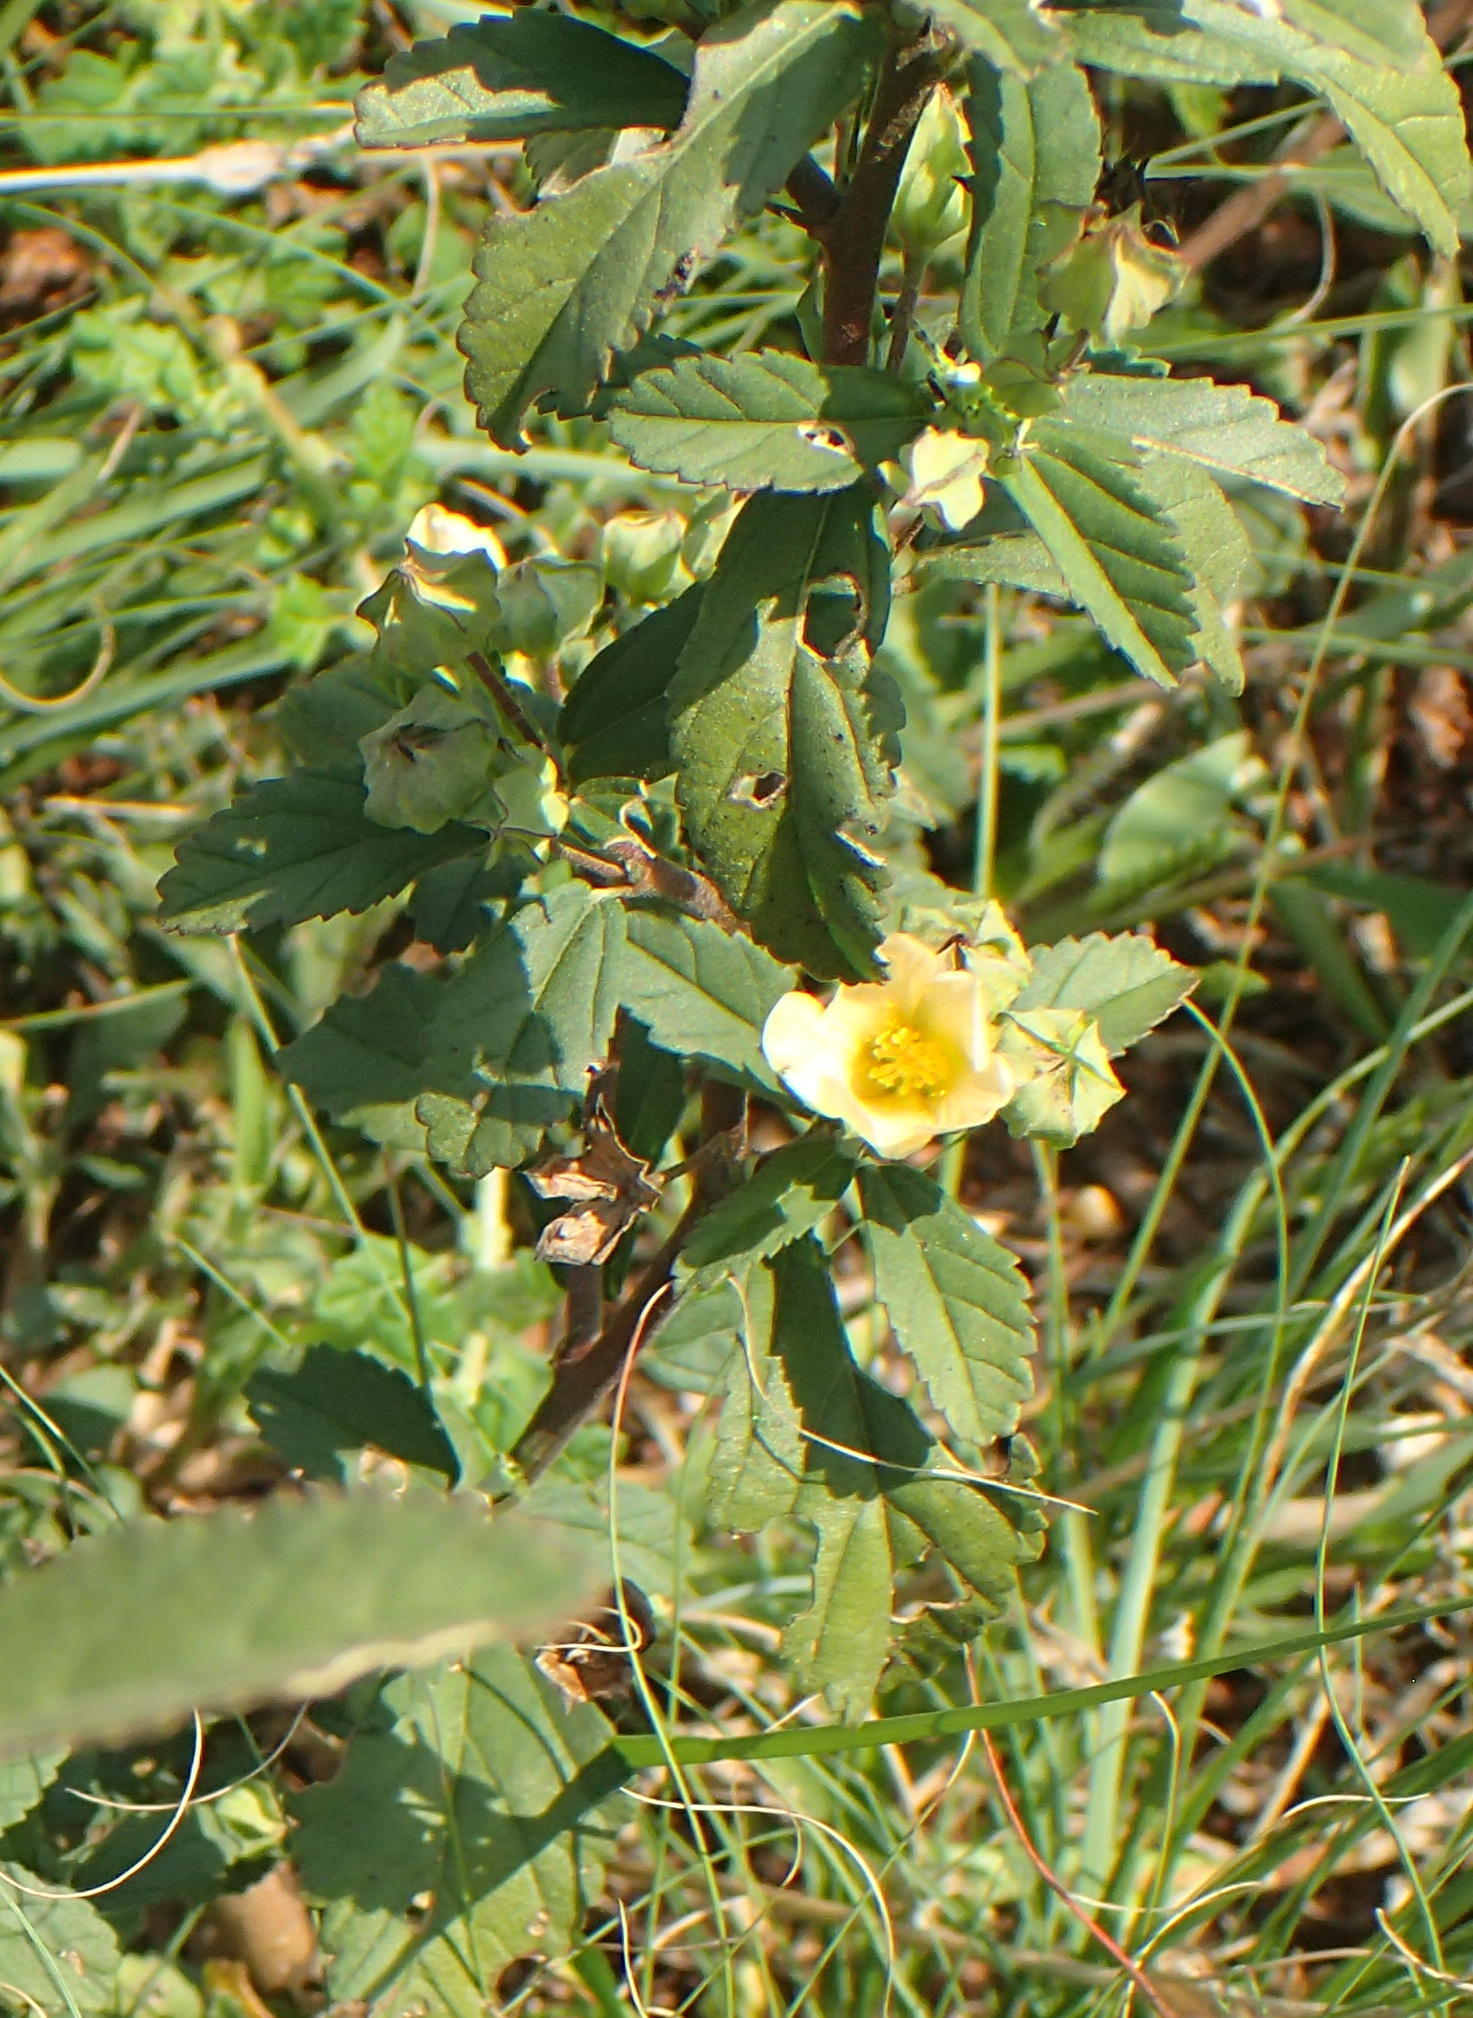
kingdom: Plantae
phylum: Tracheophyta
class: Magnoliopsida
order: Malvales
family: Malvaceae
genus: Sida
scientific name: Sida cordifolia
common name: Ilima
